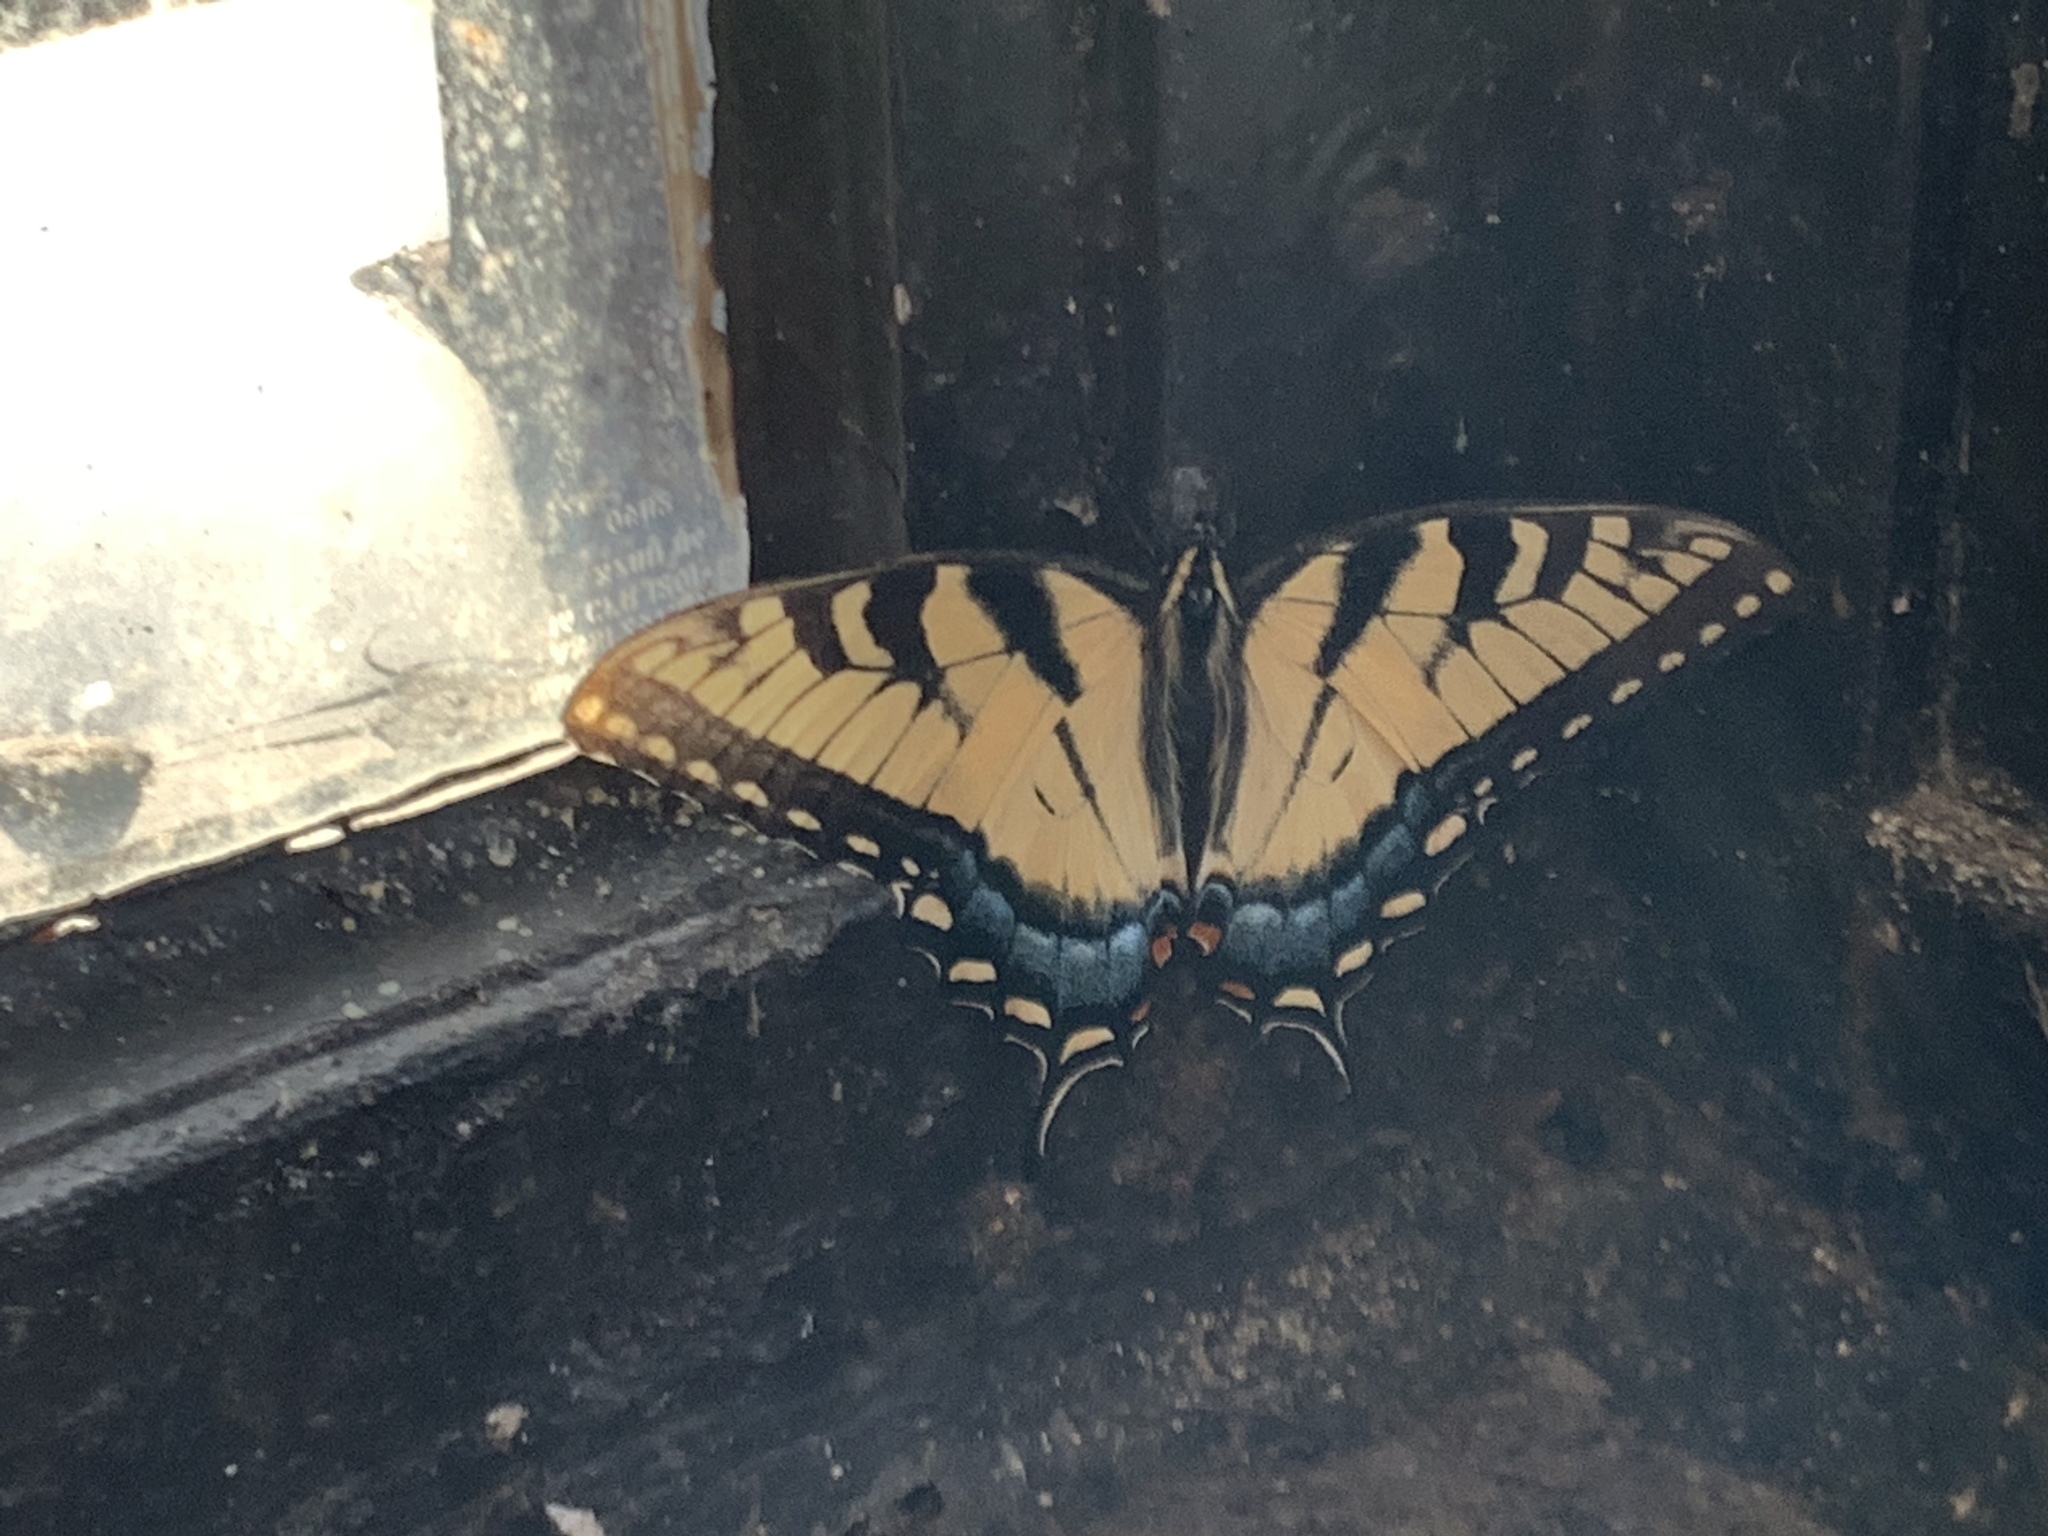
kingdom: Animalia
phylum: Arthropoda
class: Insecta
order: Lepidoptera
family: Papilionidae
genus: Papilio
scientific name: Papilio glaucus
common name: Tiger swallowtail
